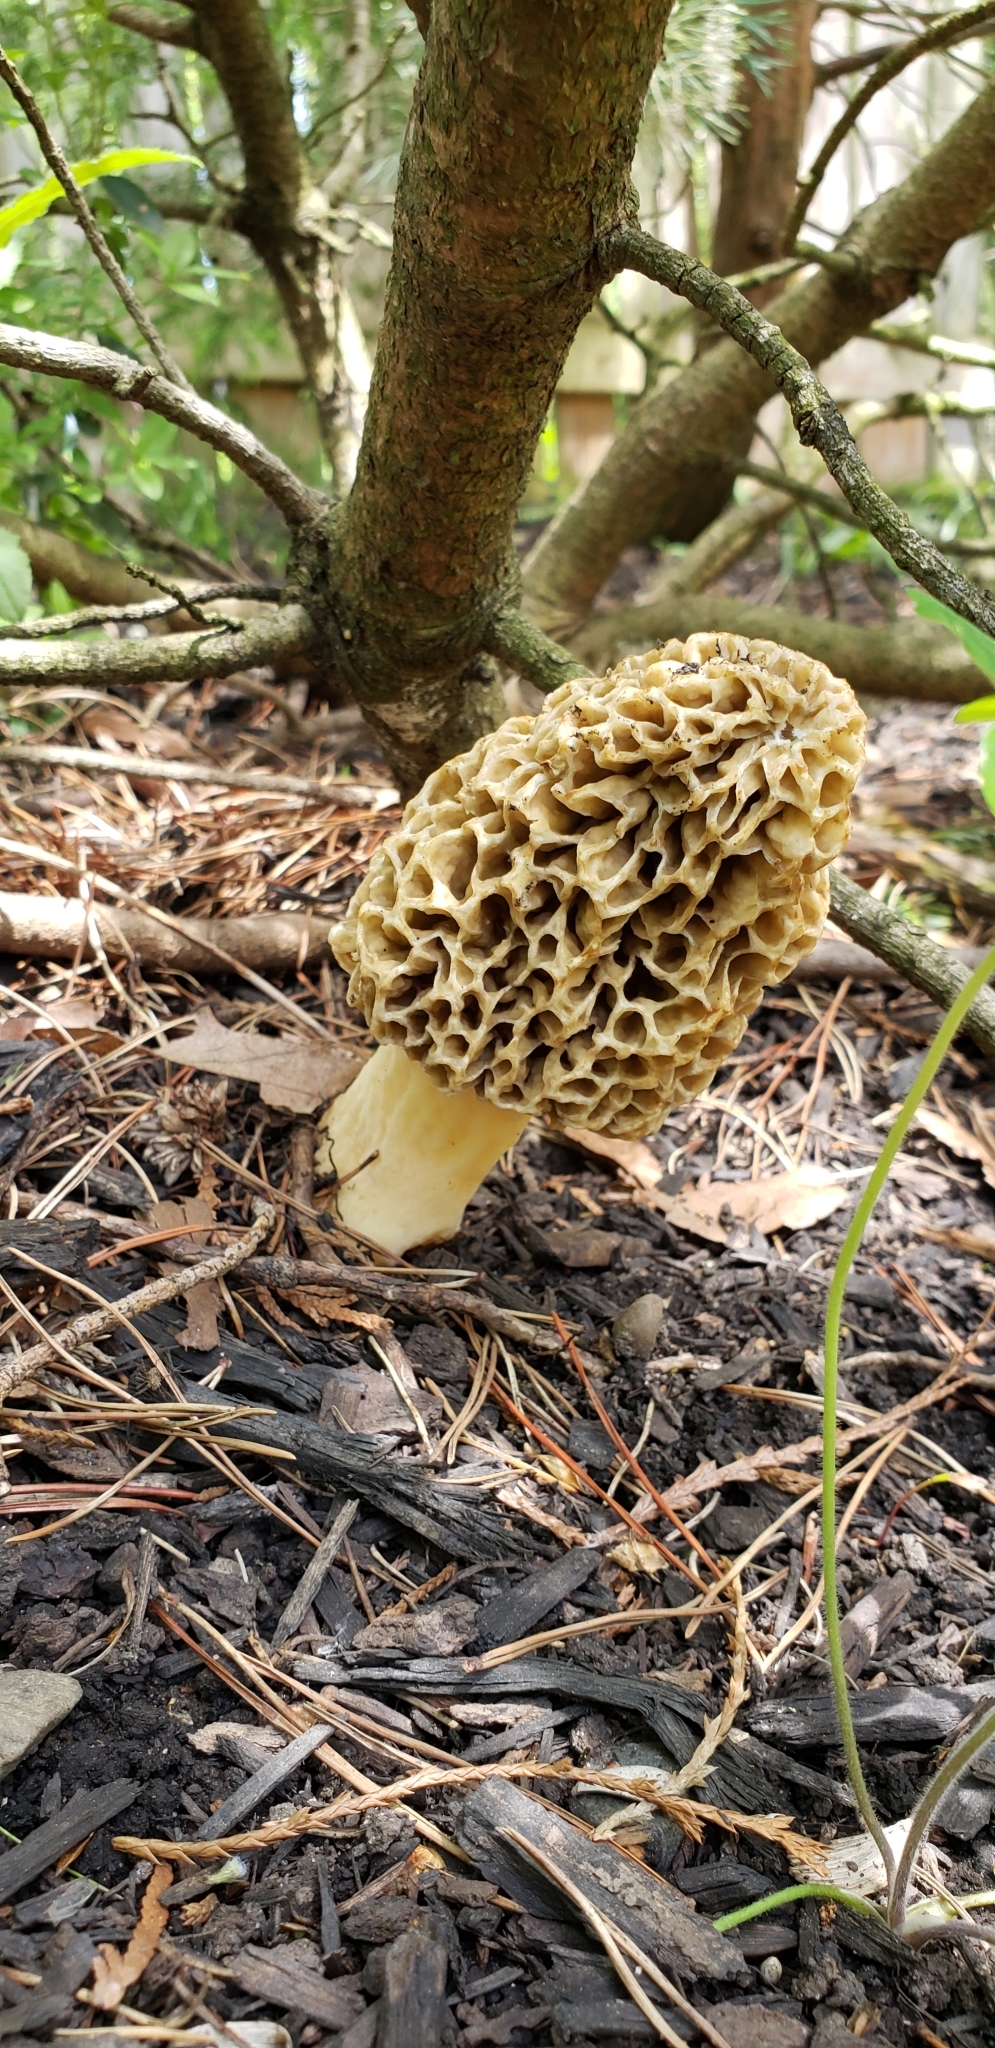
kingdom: Fungi
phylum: Ascomycota
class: Pezizomycetes
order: Pezizales
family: Morchellaceae
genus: Morchella
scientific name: Morchella americana
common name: White morel
